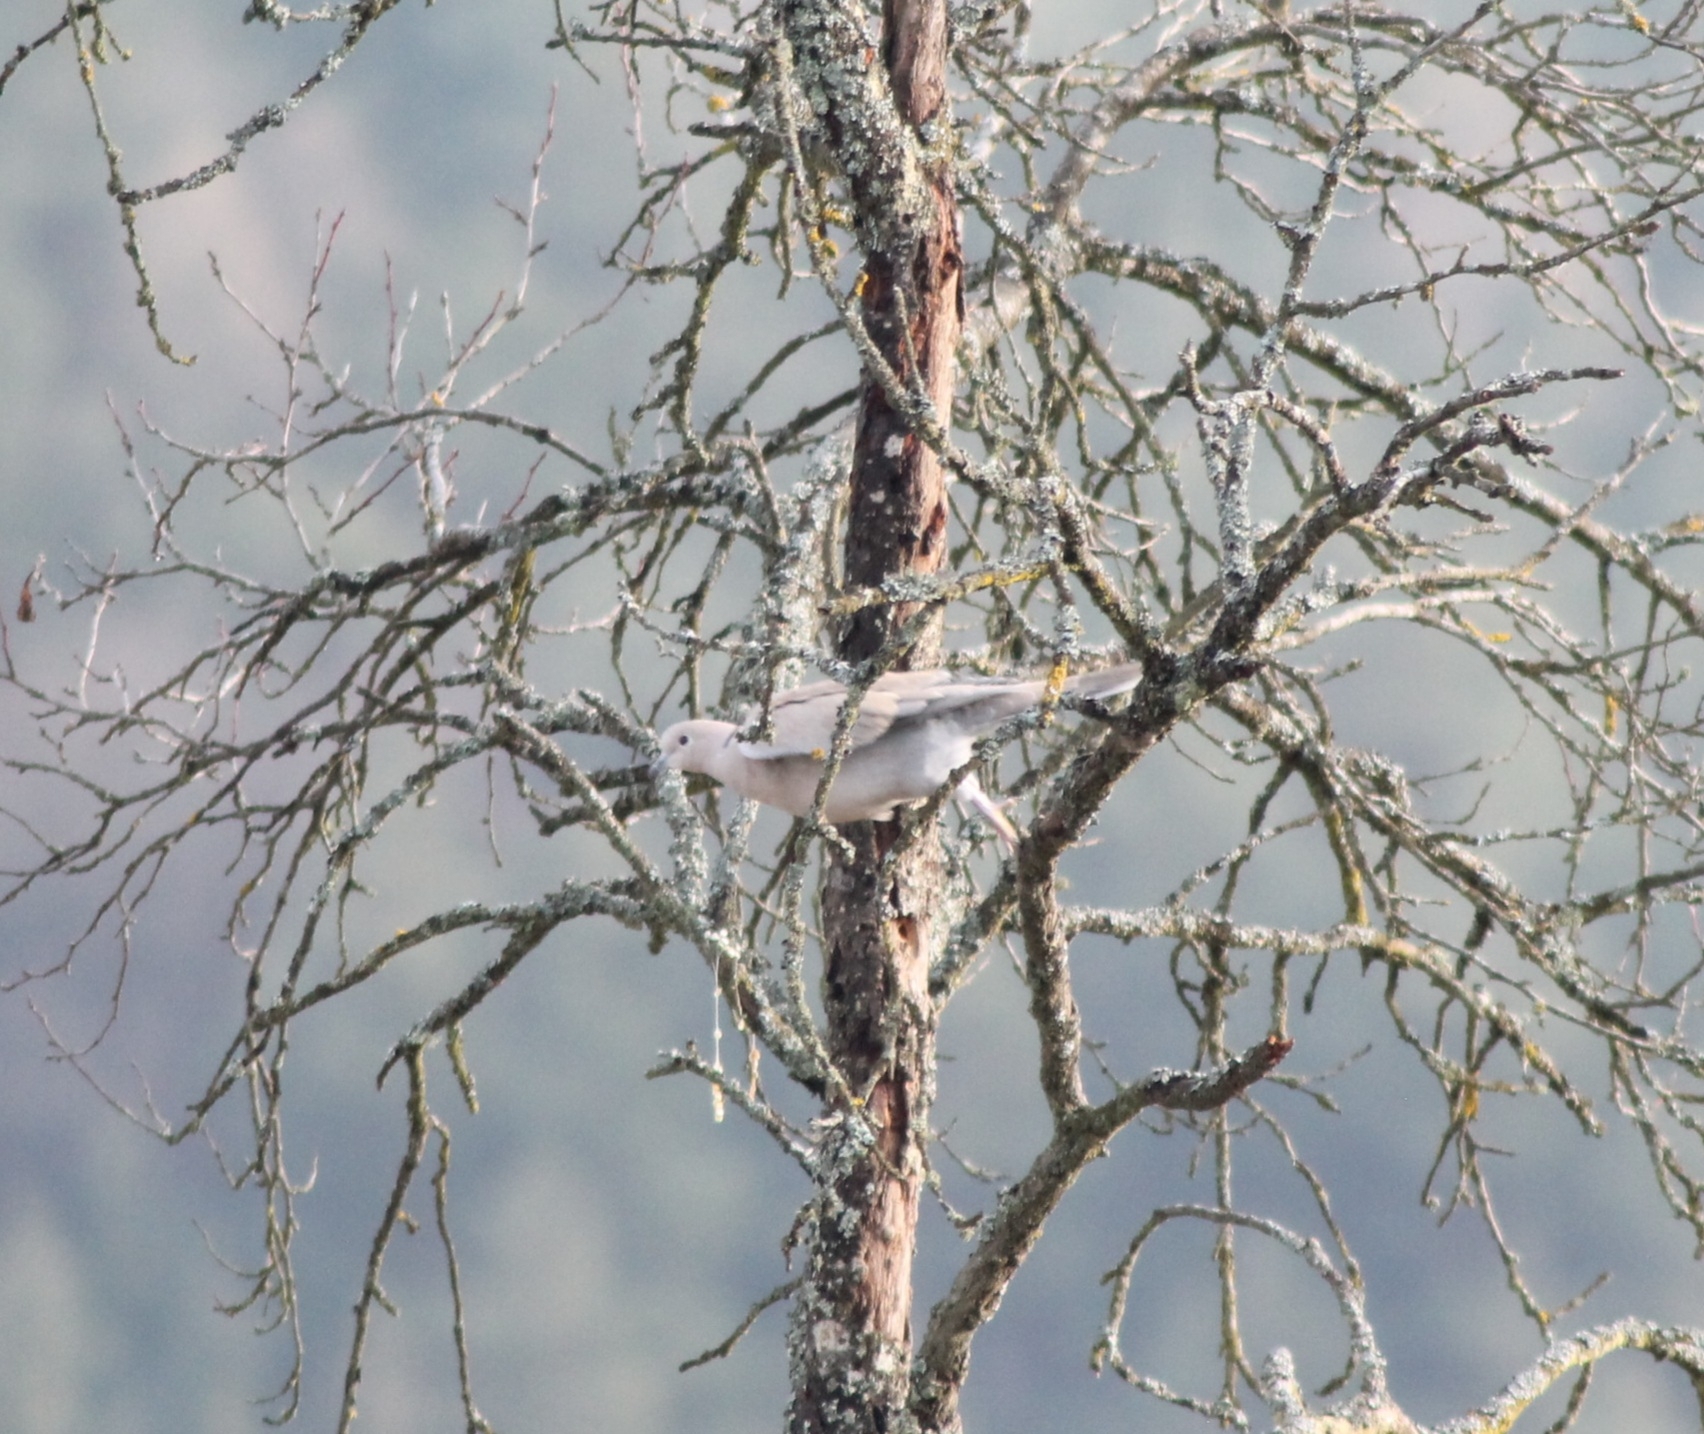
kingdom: Animalia
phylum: Chordata
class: Aves
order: Columbiformes
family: Columbidae
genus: Streptopelia
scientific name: Streptopelia decaocto
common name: Eurasian collared dove
